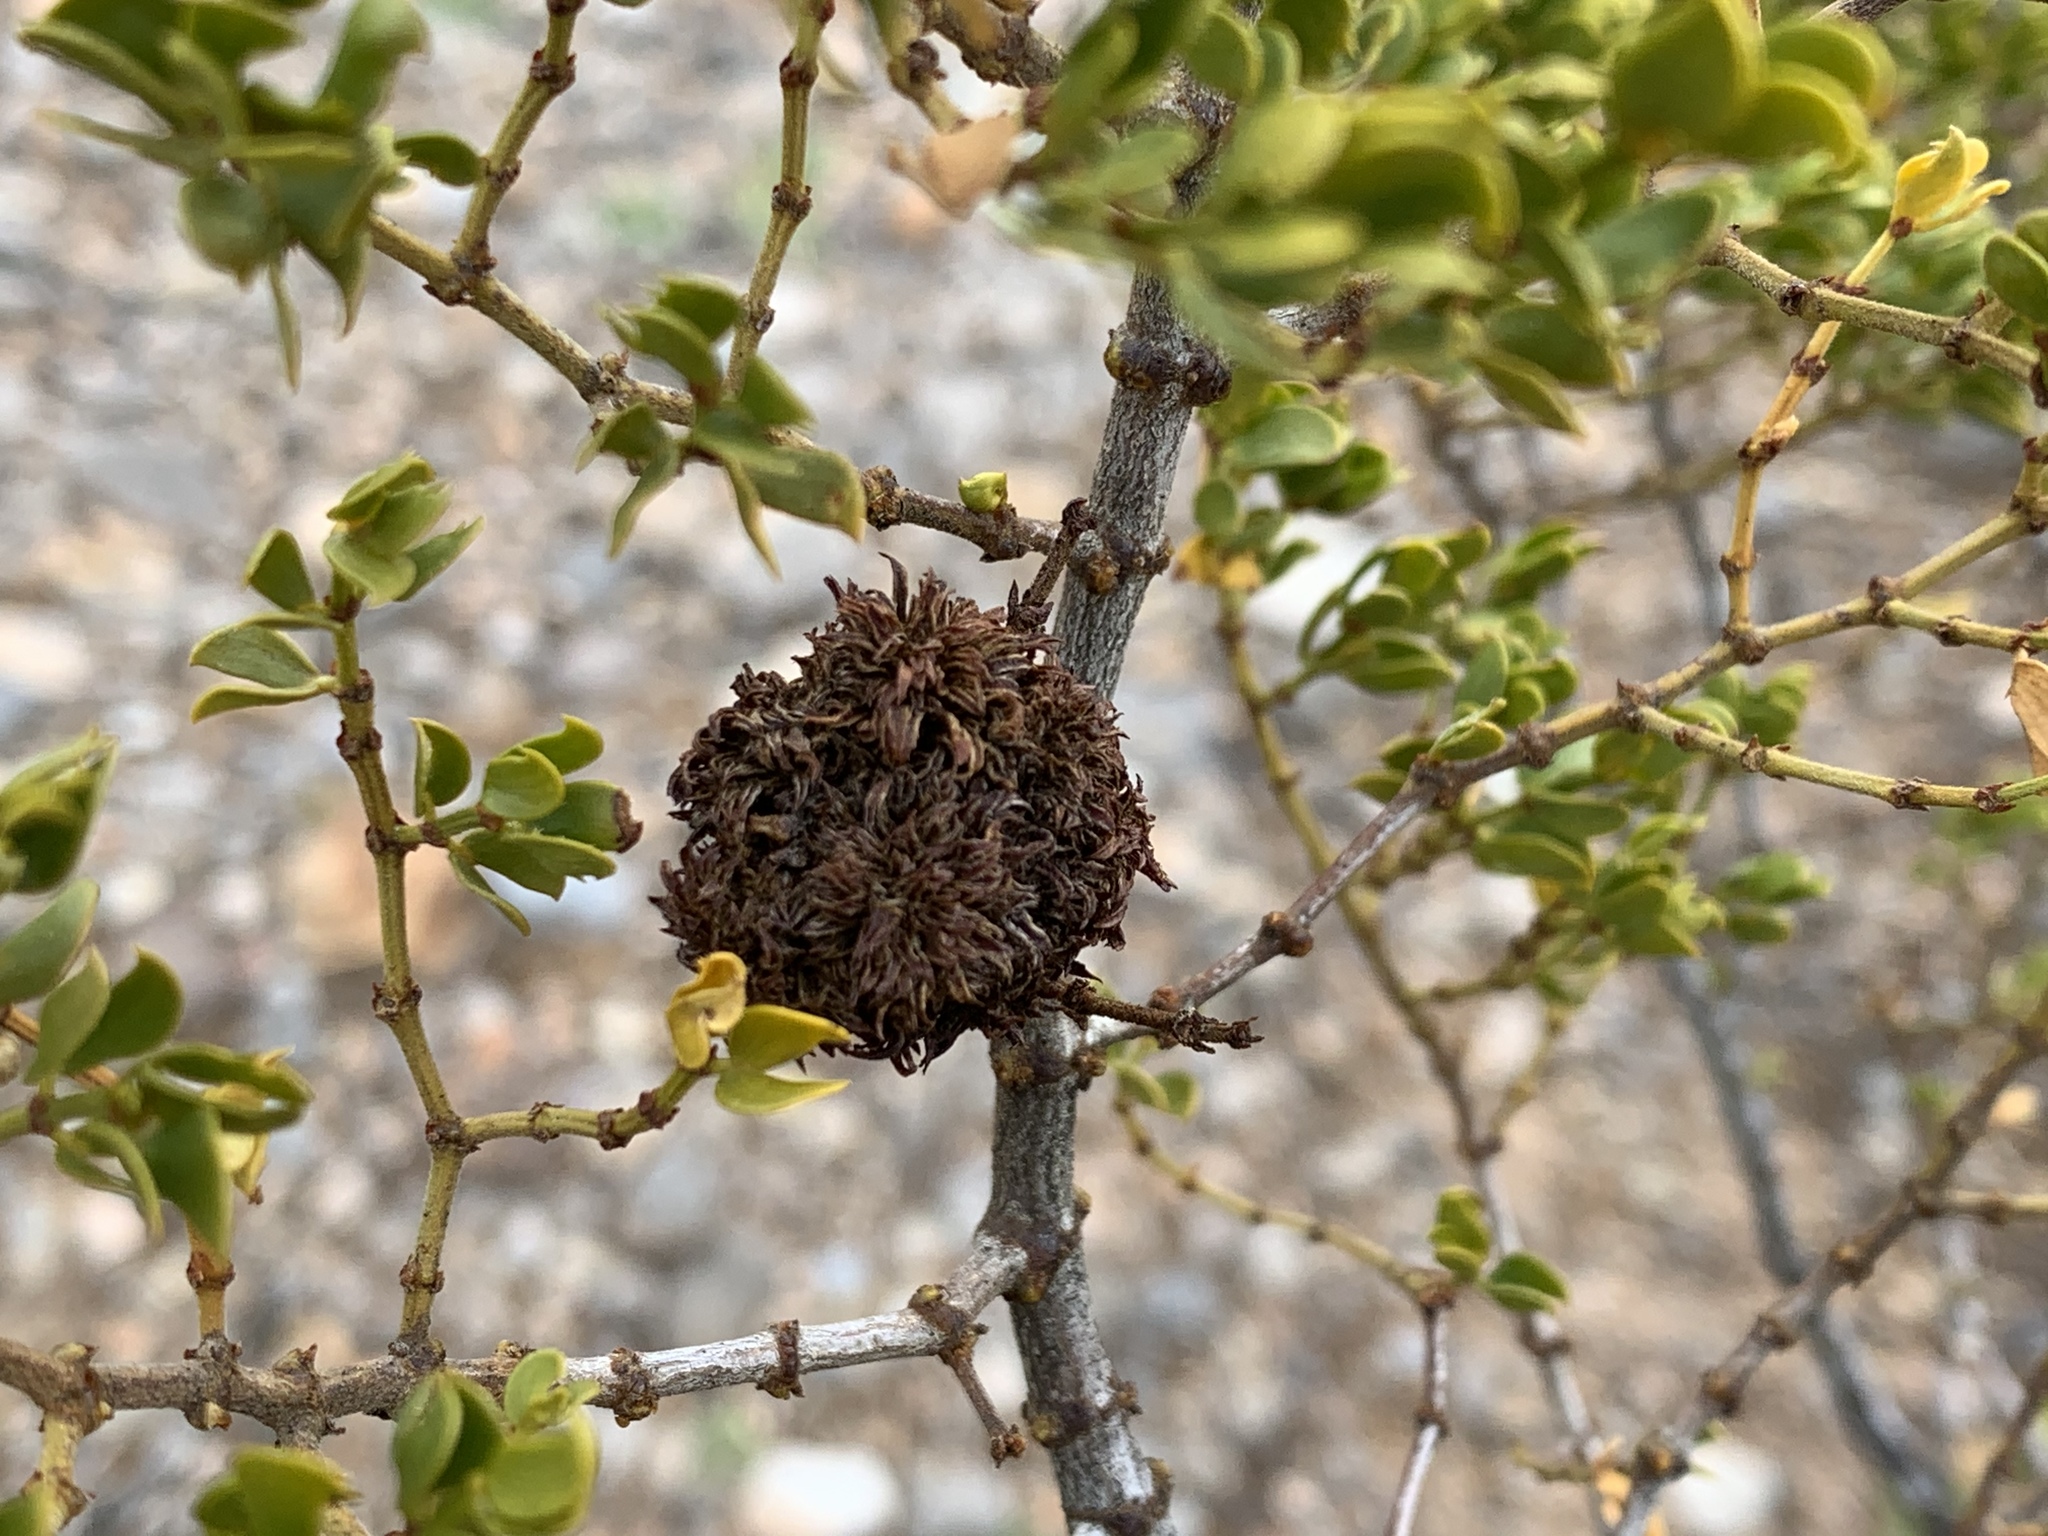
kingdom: Animalia
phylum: Arthropoda
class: Insecta
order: Diptera
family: Cecidomyiidae
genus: Asphondylia
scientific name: Asphondylia auripila
